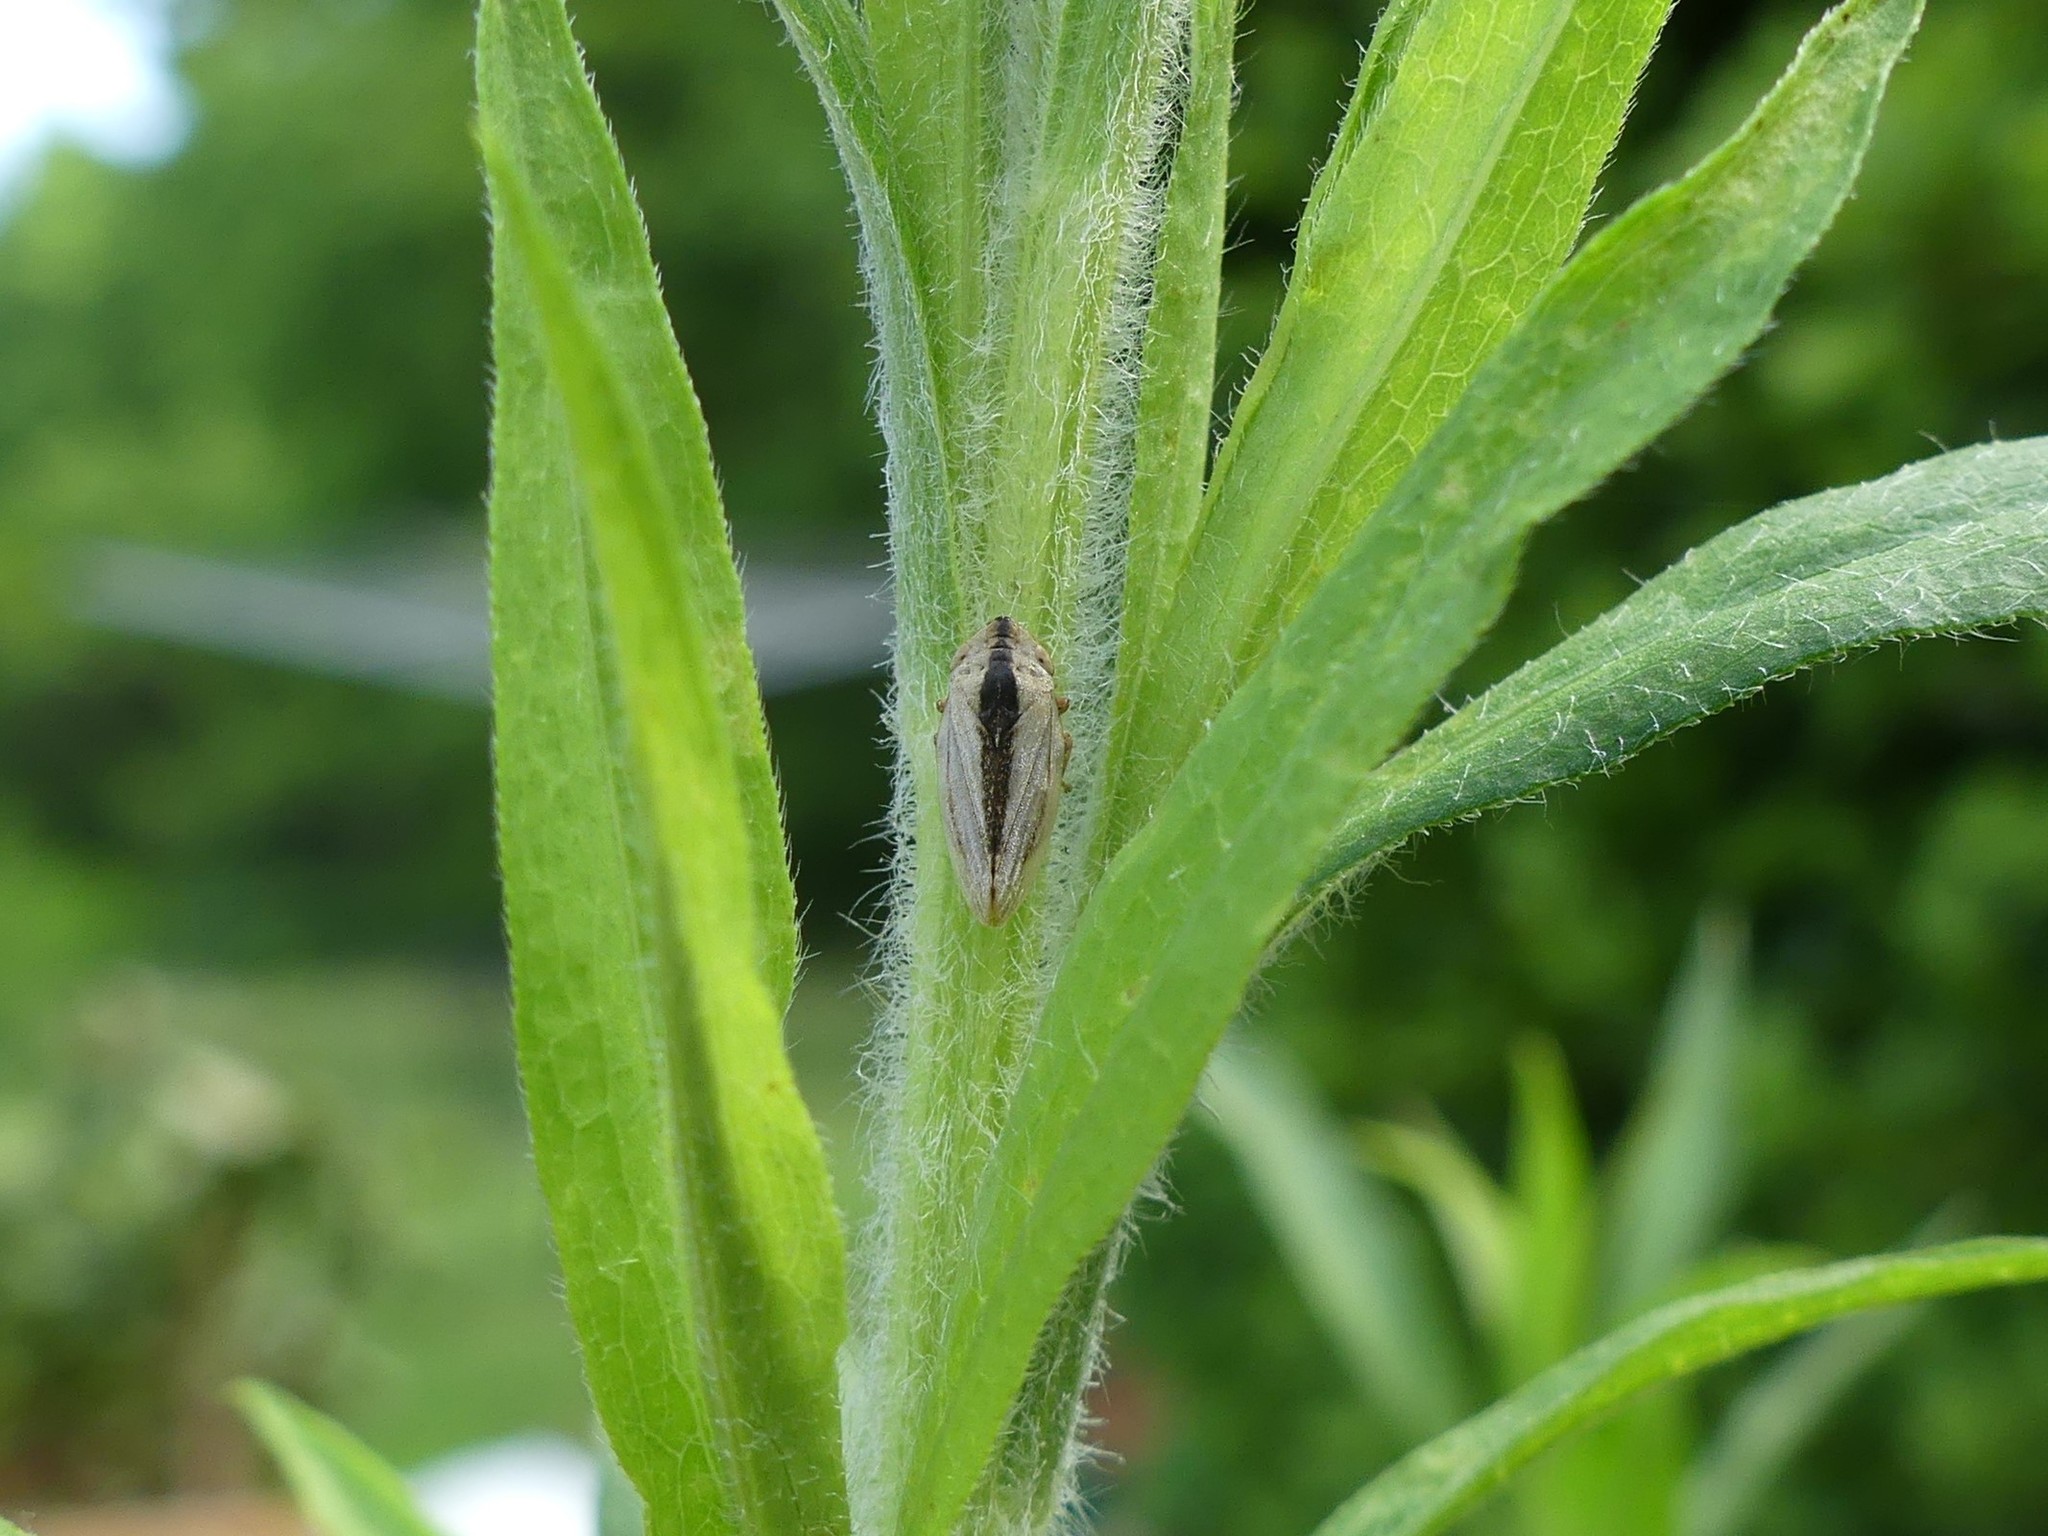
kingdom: Animalia
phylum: Arthropoda
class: Insecta
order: Hemiptera
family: Aphrophoridae
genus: Philaenus
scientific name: Philaenus spumarius
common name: Meadow spittlebug
